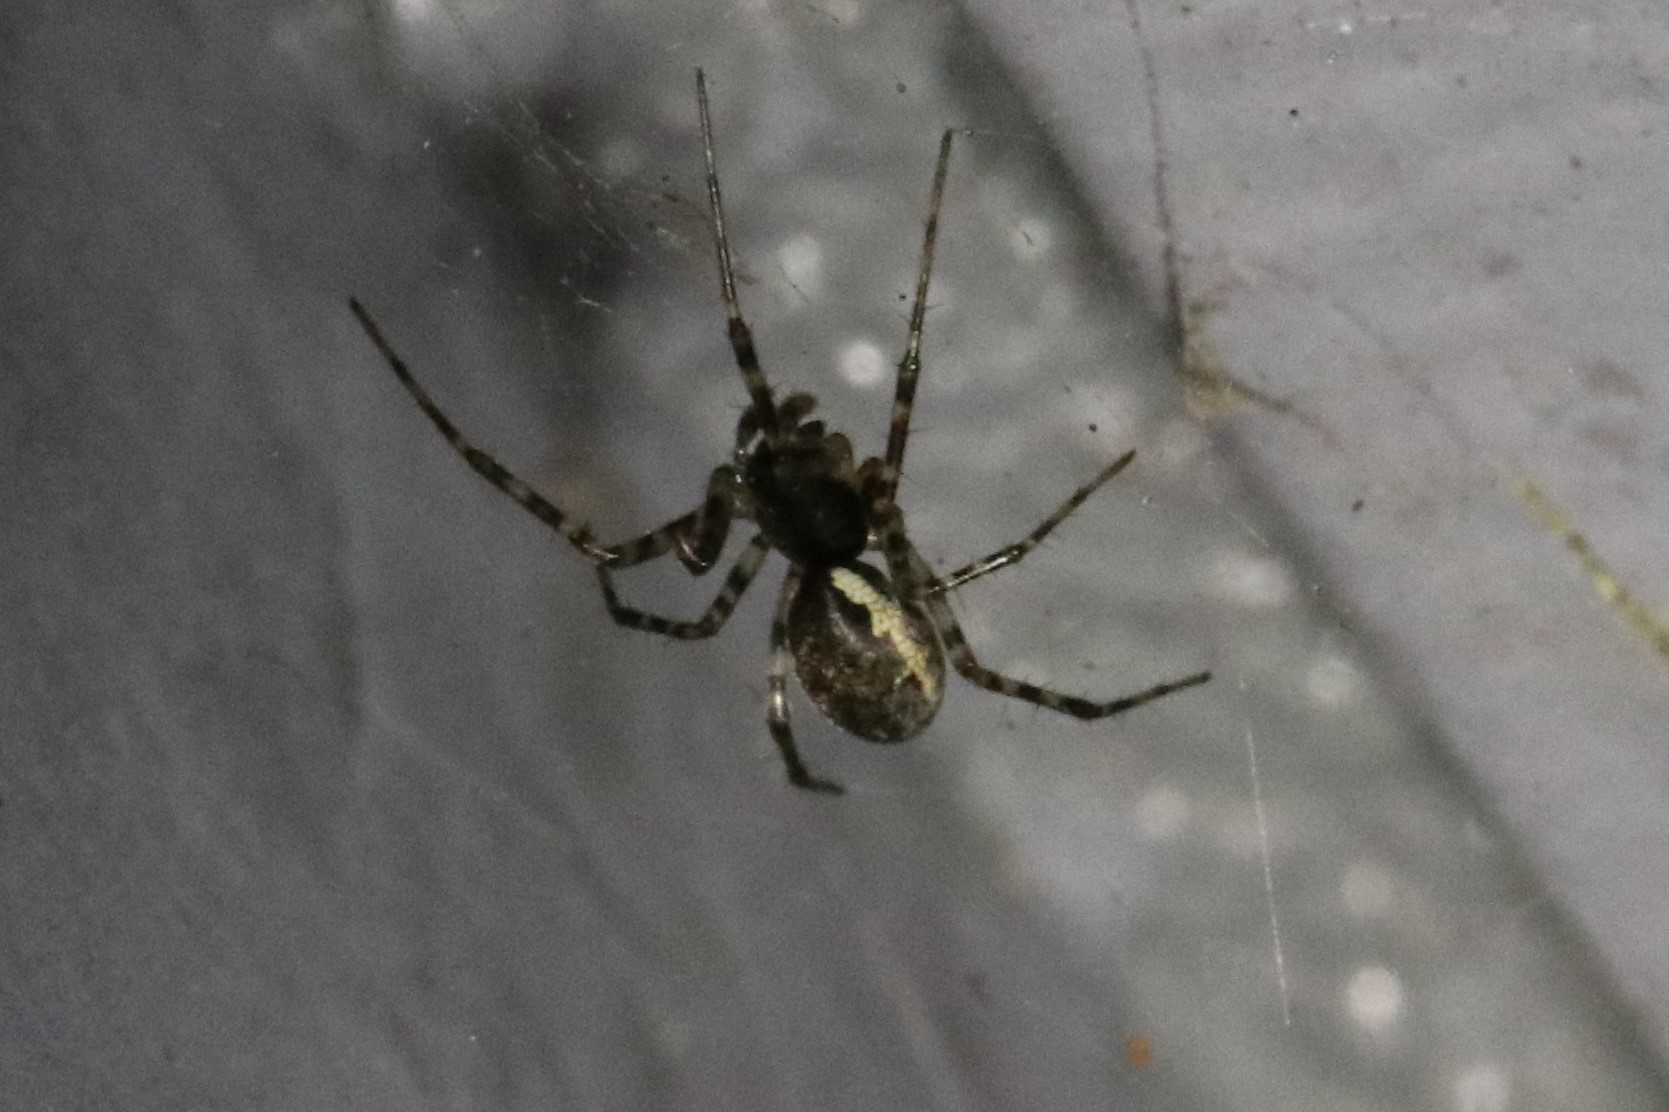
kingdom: Animalia
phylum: Arthropoda
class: Arachnida
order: Araneae
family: Linyphiidae
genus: Neriene
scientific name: Neriene montana
